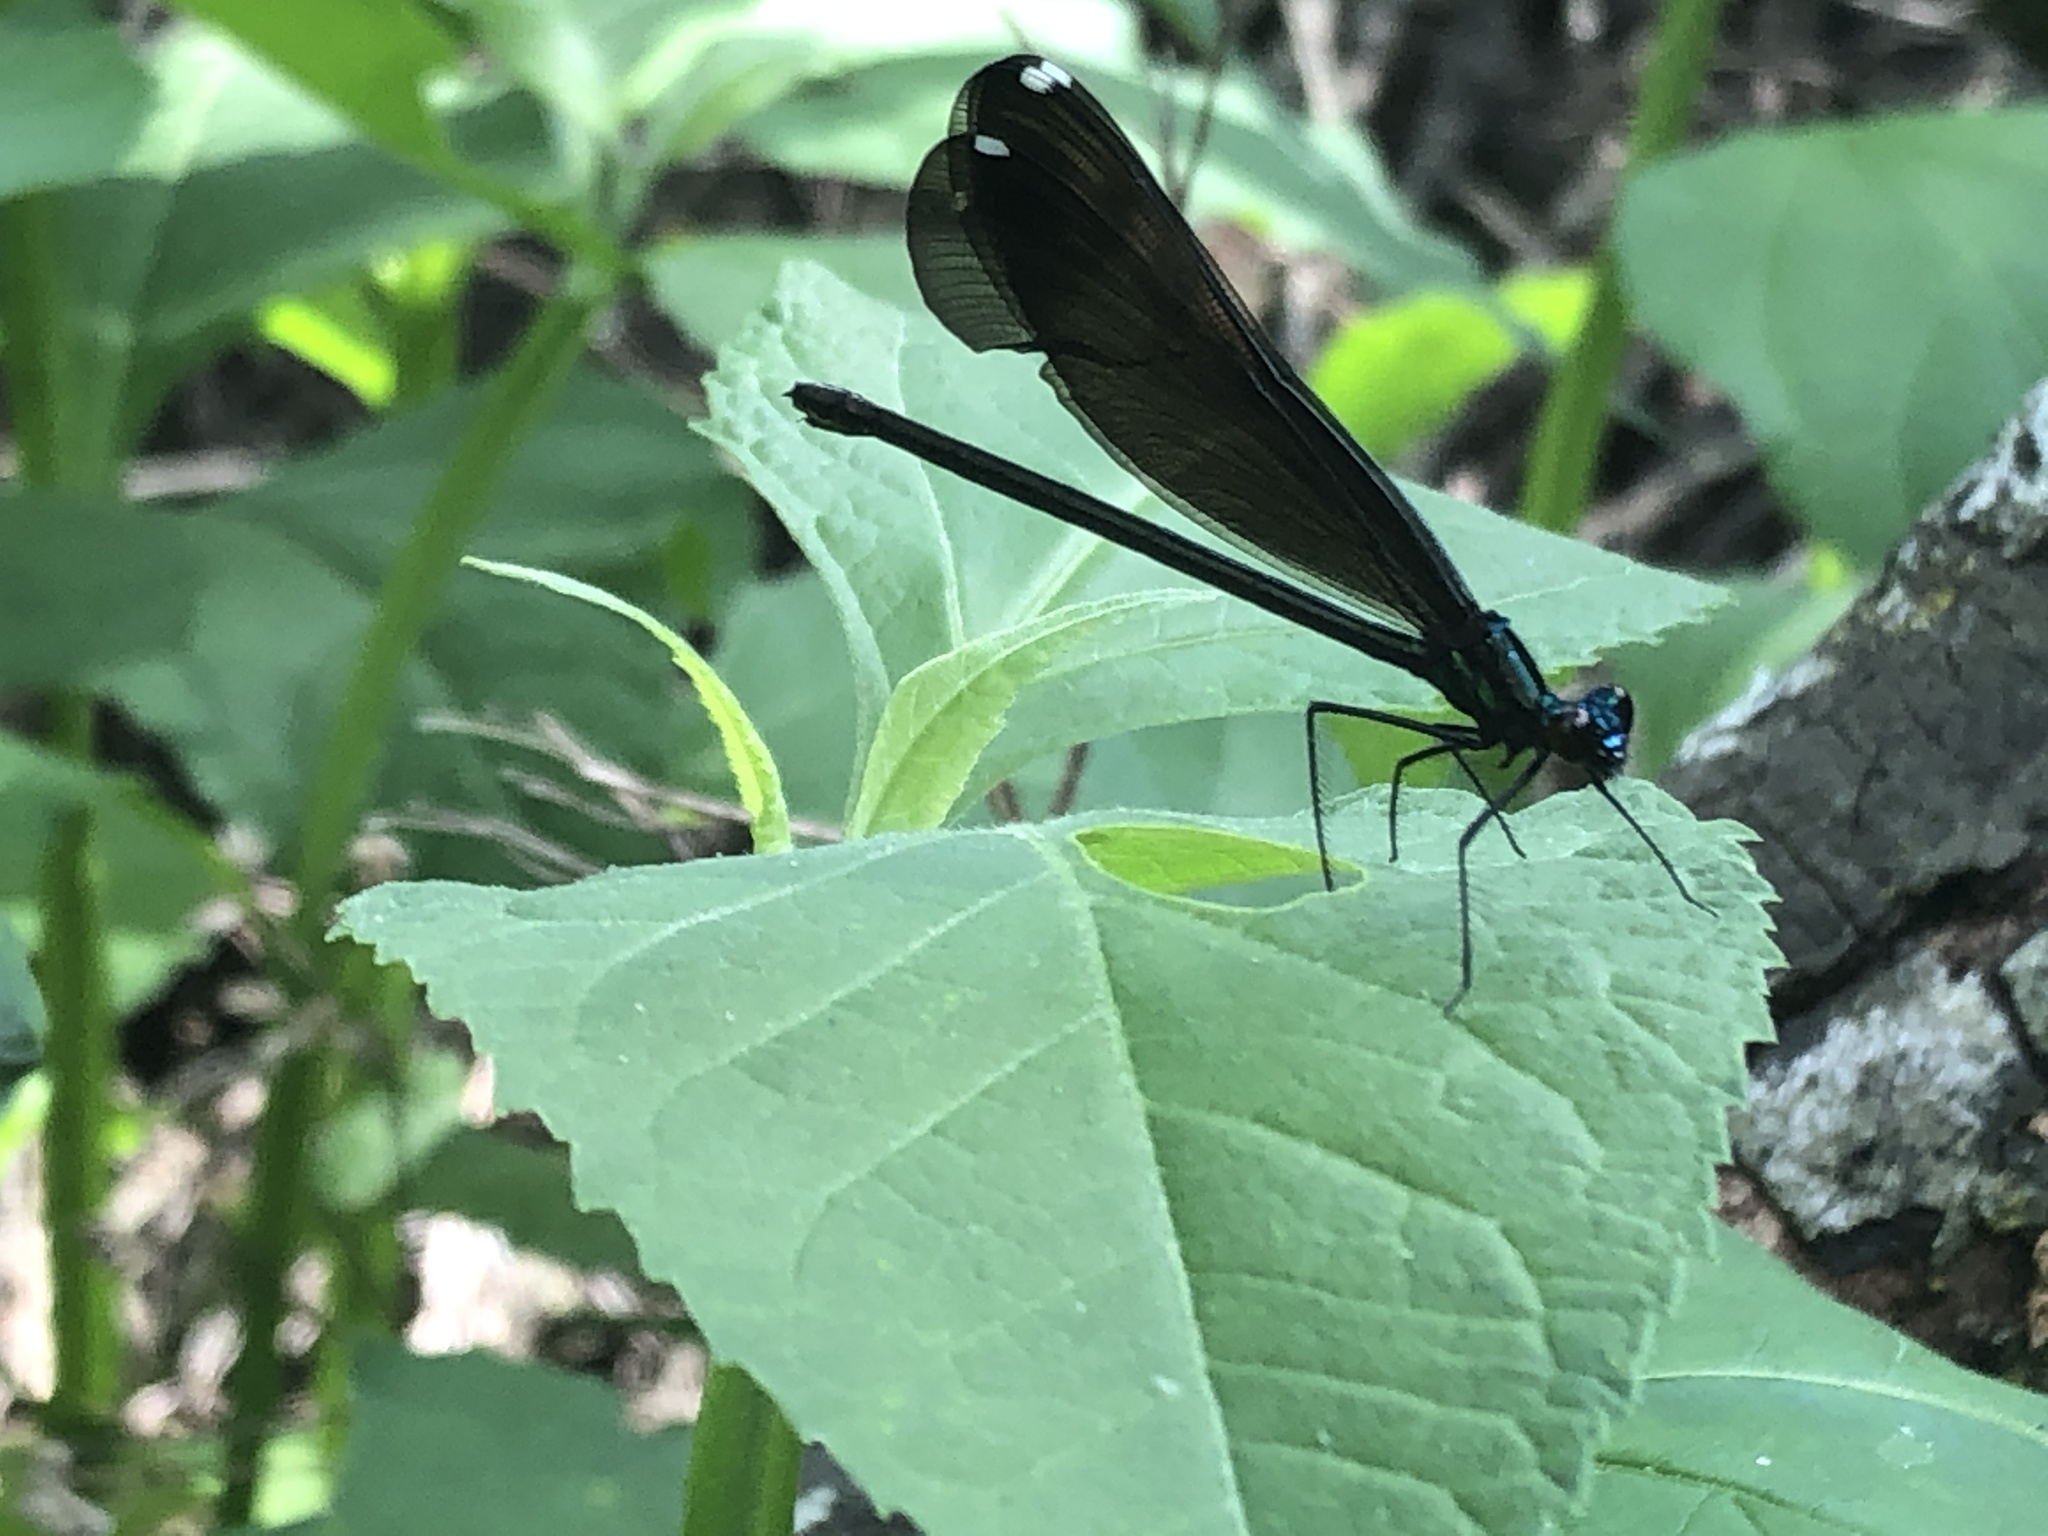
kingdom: Animalia
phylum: Arthropoda
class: Insecta
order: Odonata
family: Calopterygidae
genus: Calopteryx
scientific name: Calopteryx maculata
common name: Ebony jewelwing
